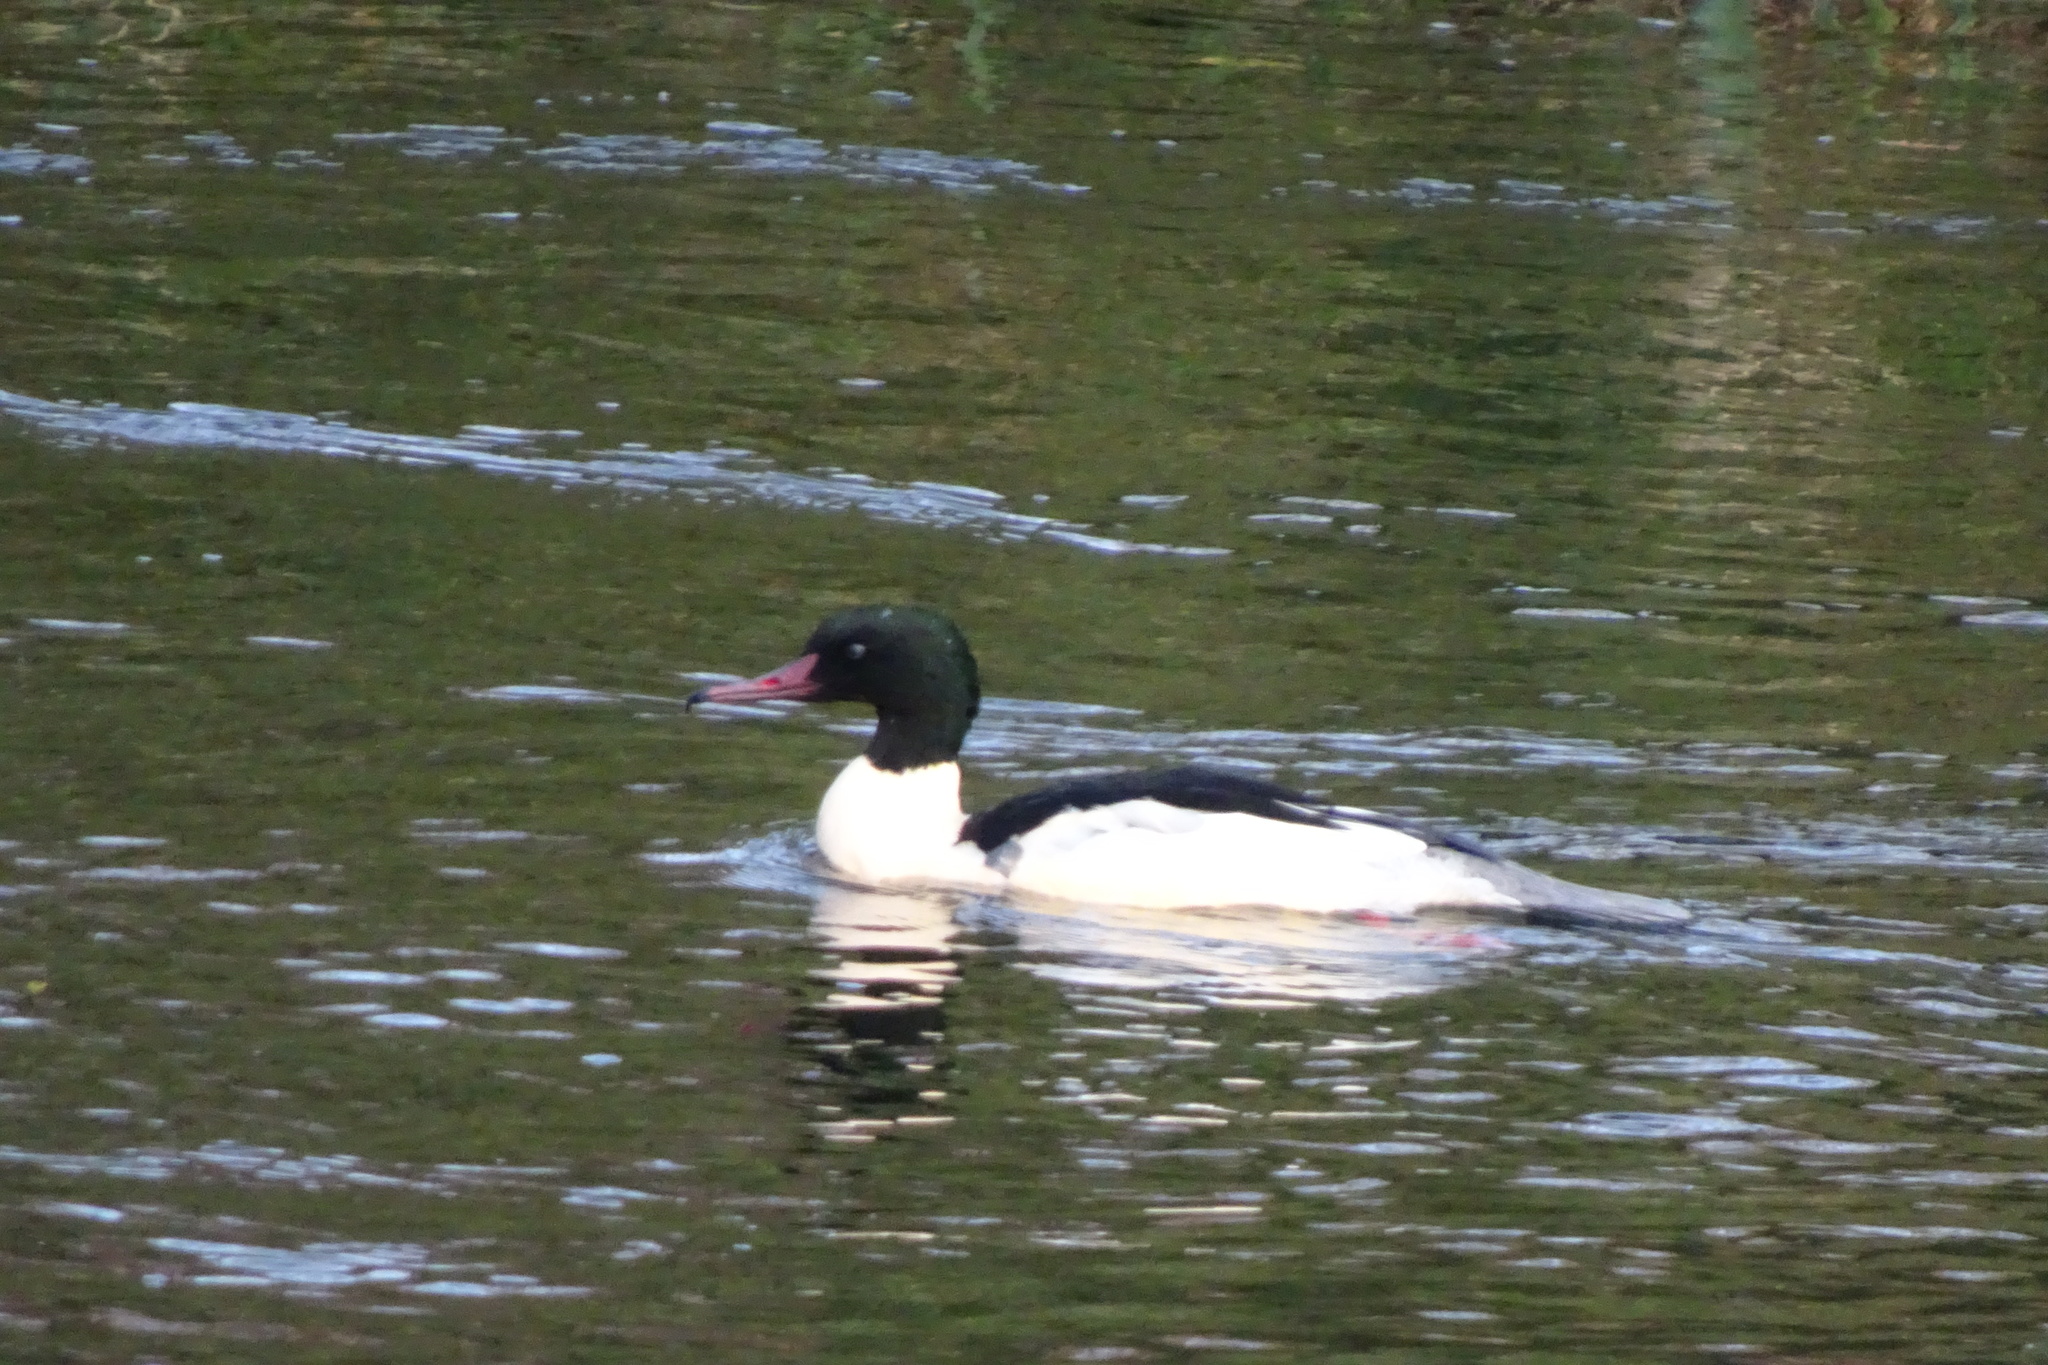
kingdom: Animalia
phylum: Chordata
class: Aves
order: Anseriformes
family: Anatidae
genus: Mergus
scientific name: Mergus merganser
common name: Common merganser
